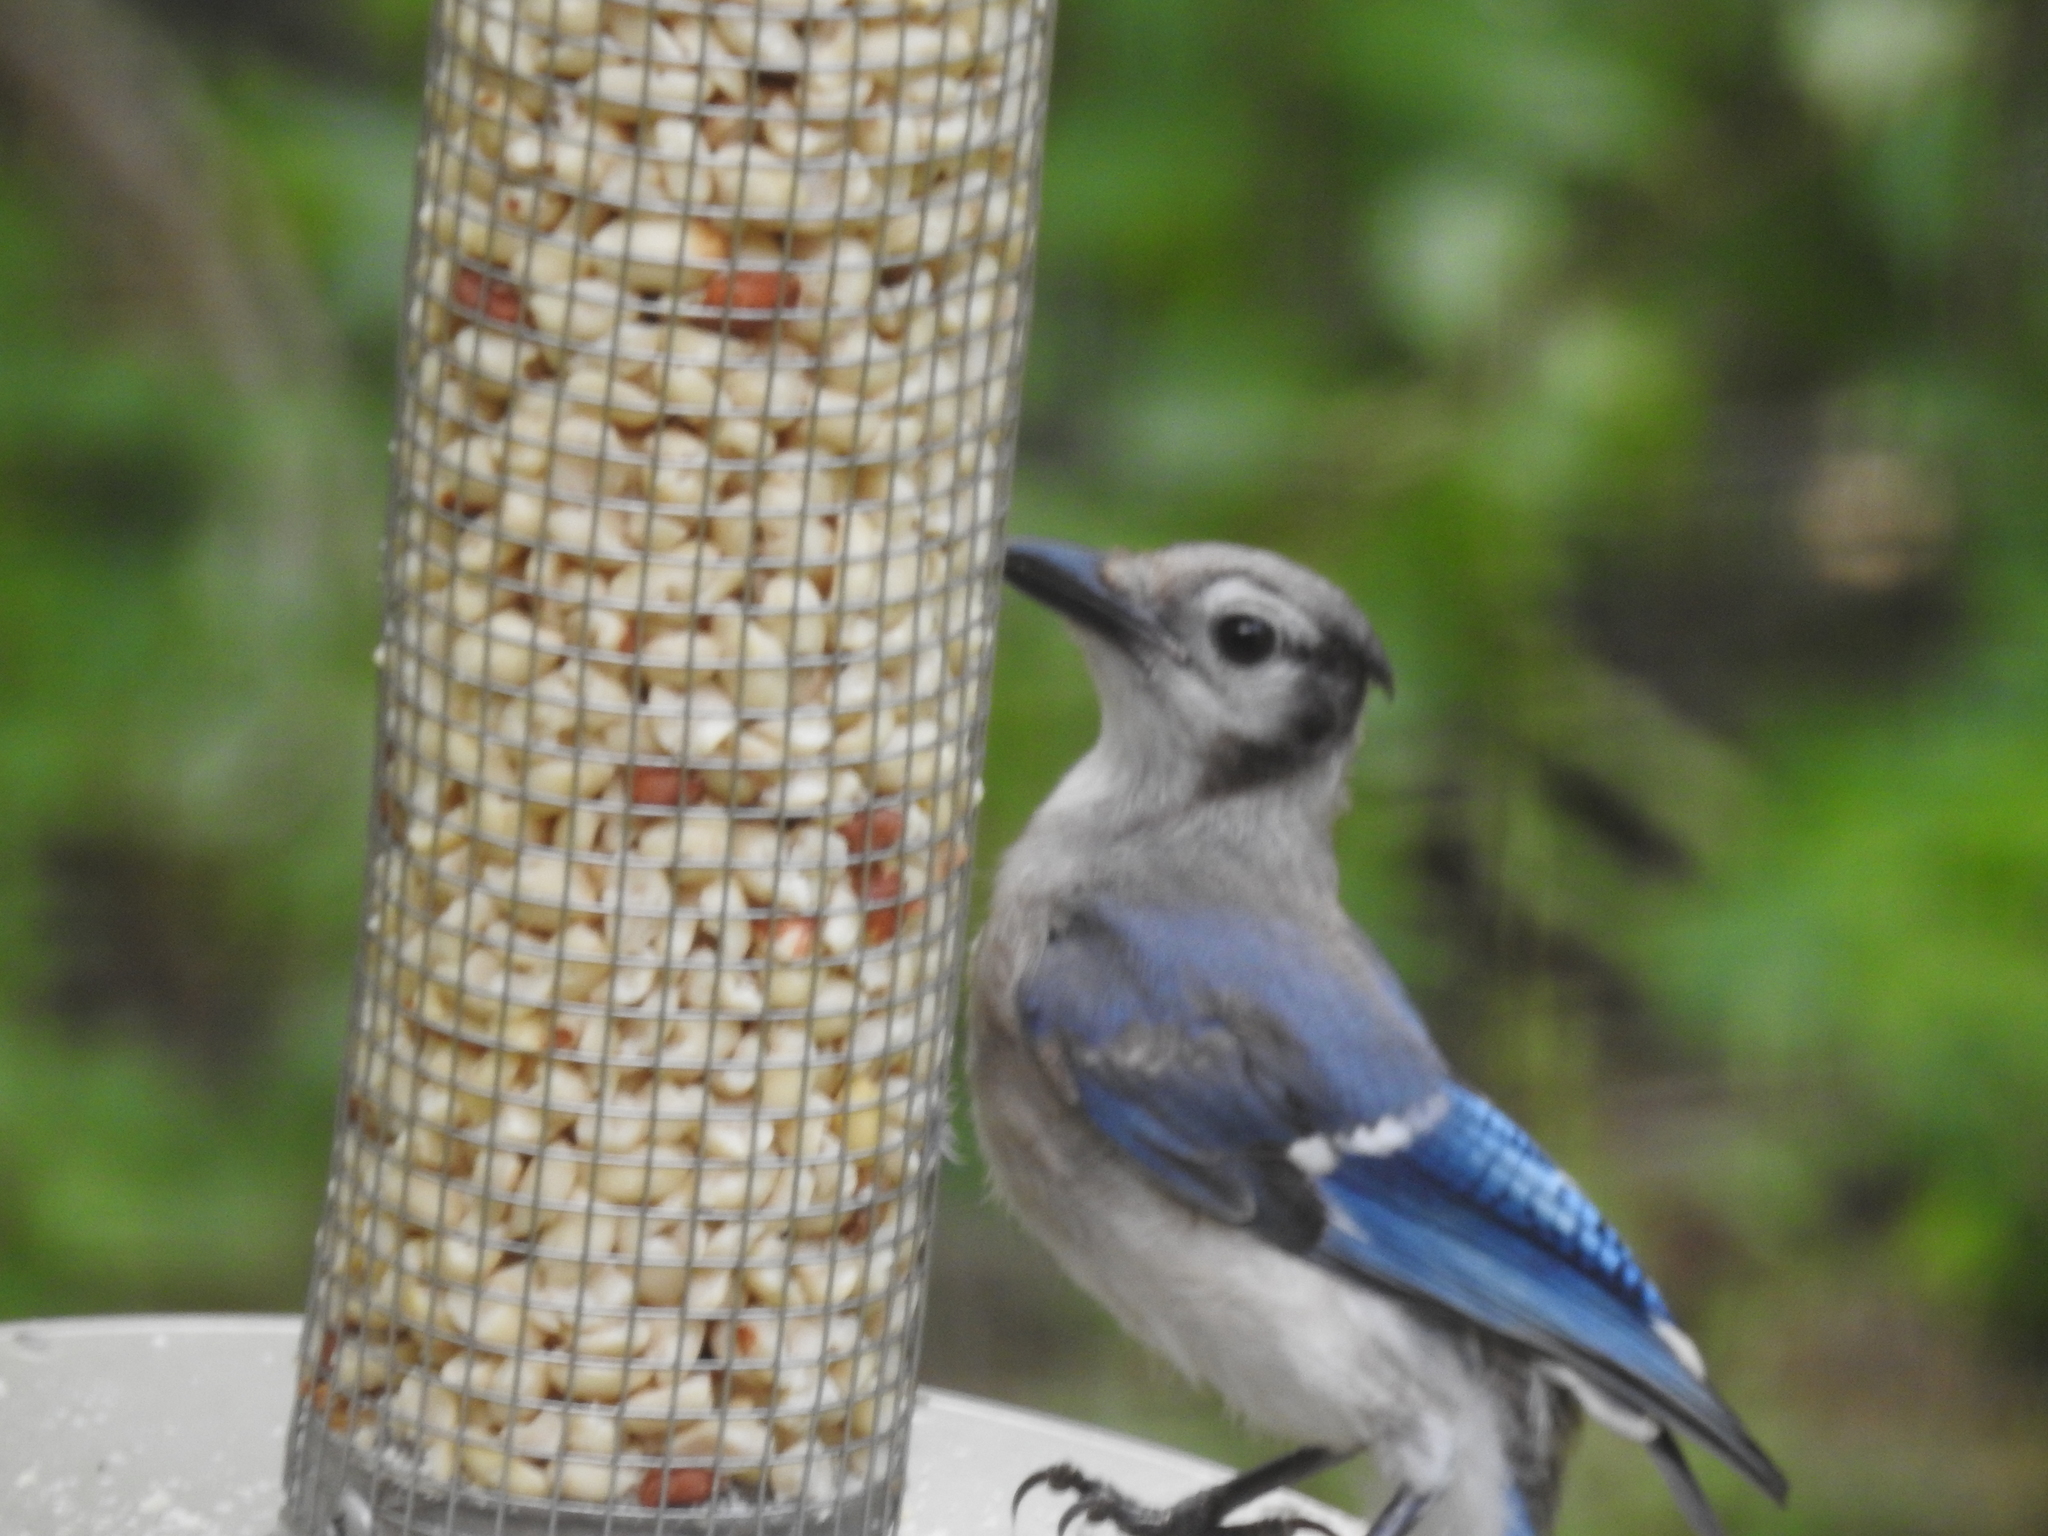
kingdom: Animalia
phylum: Chordata
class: Aves
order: Passeriformes
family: Corvidae
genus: Cyanocitta
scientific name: Cyanocitta cristata
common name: Blue jay
